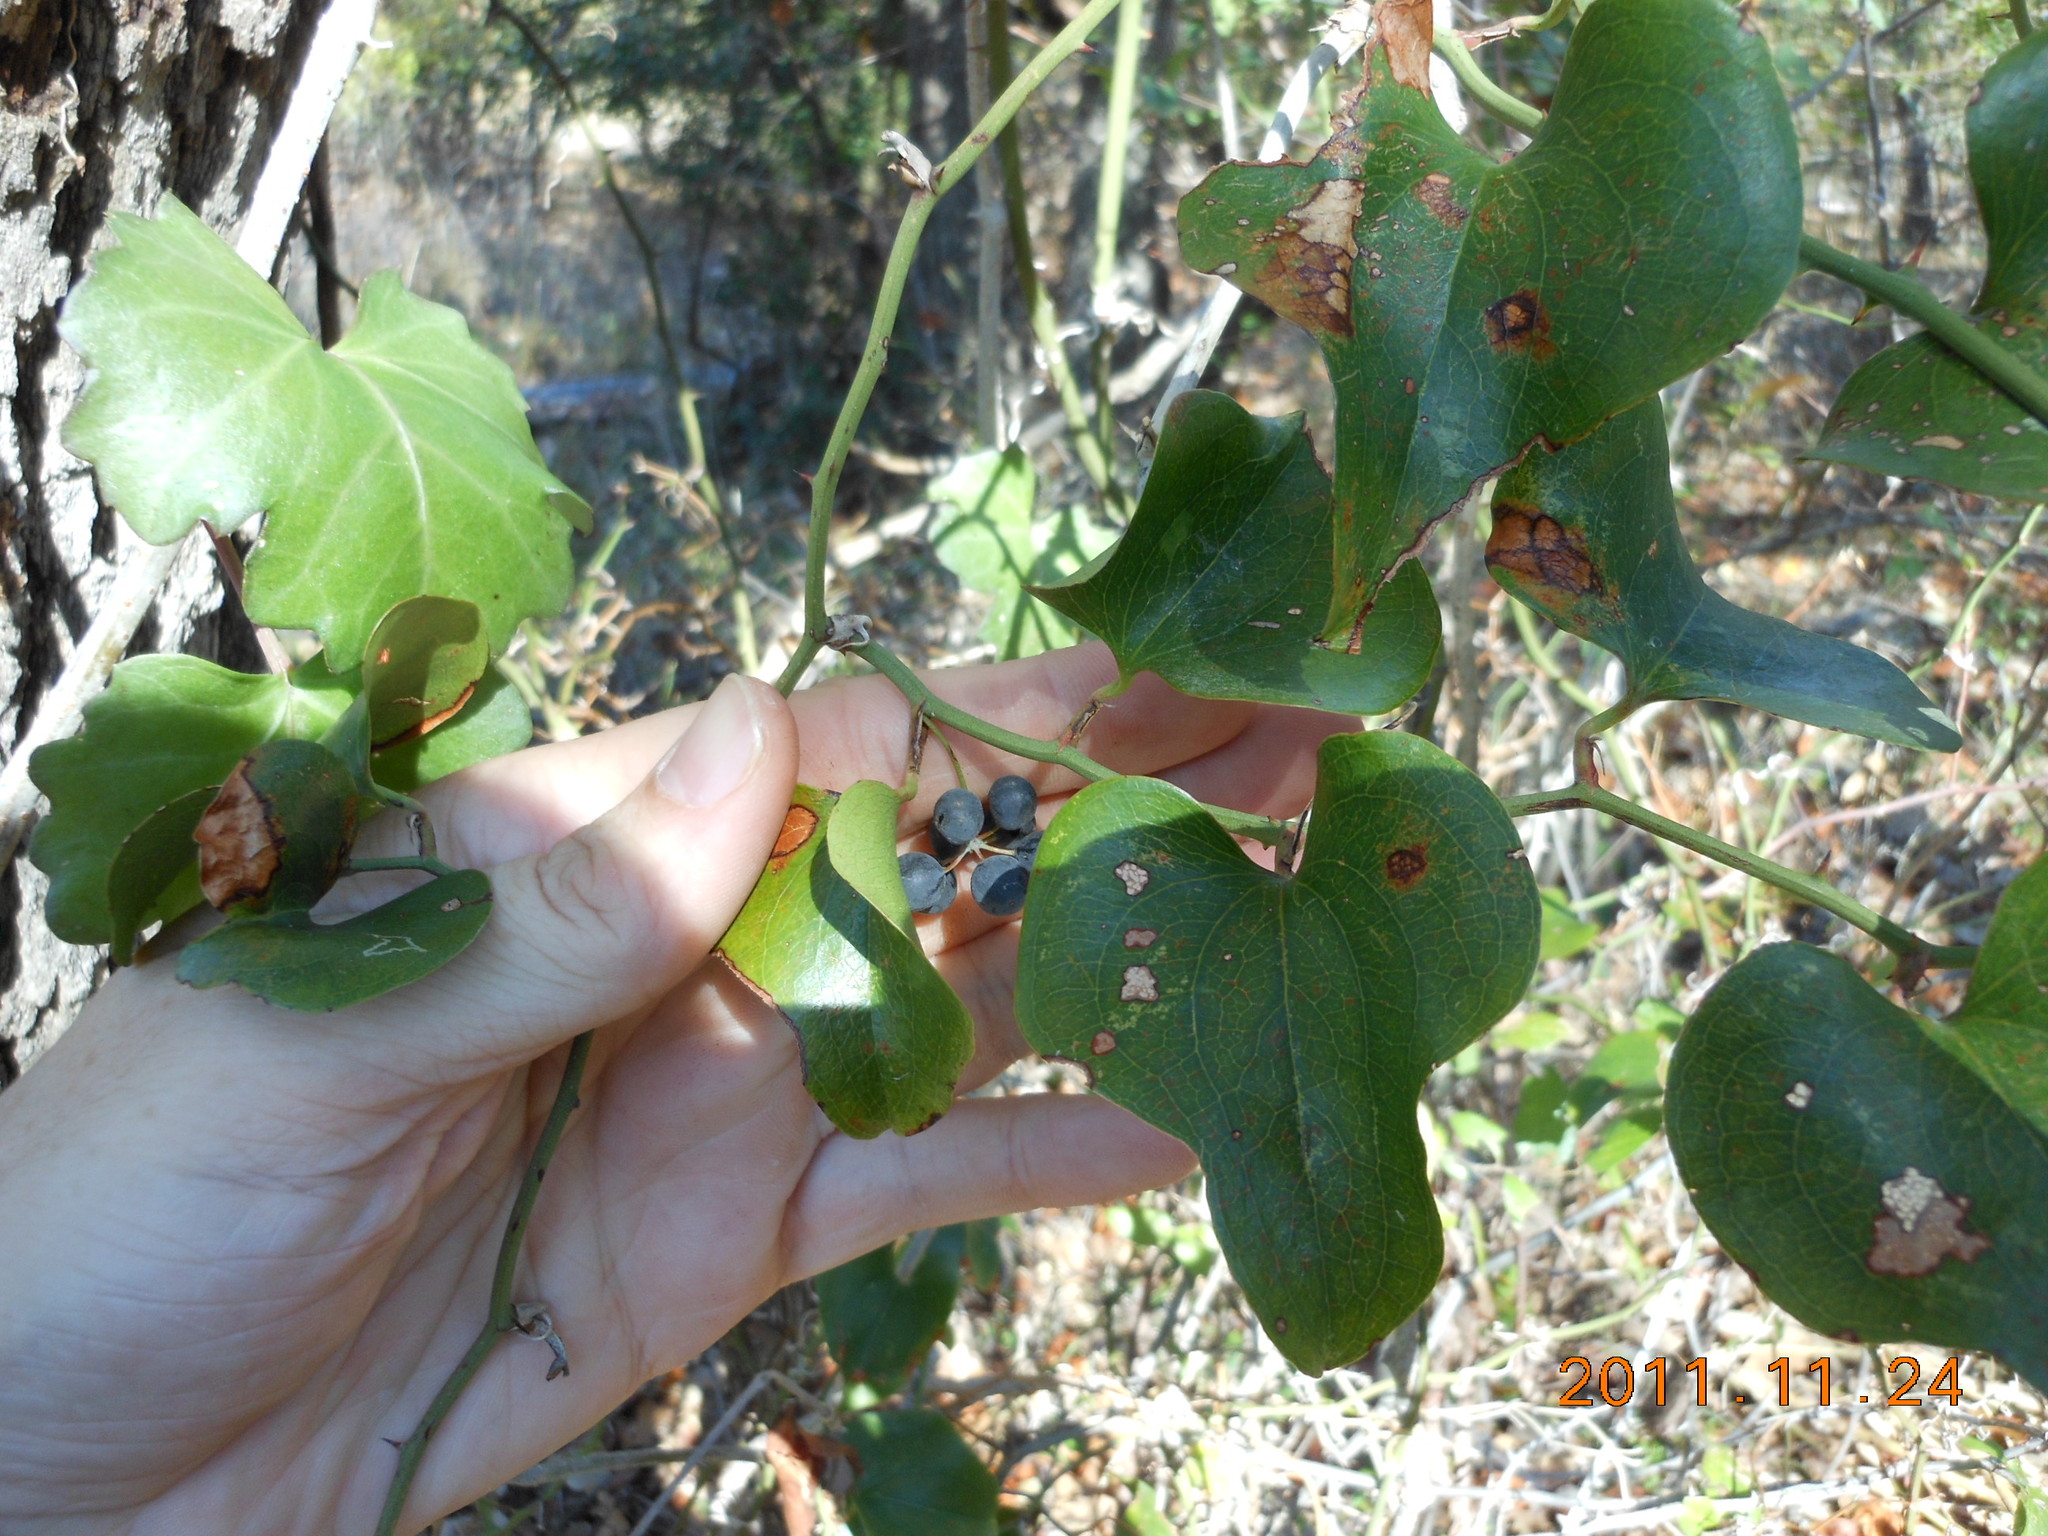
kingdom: Plantae
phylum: Tracheophyta
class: Liliopsida
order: Liliales
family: Smilacaceae
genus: Smilax
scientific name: Smilax bona-nox
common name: Catbrier
